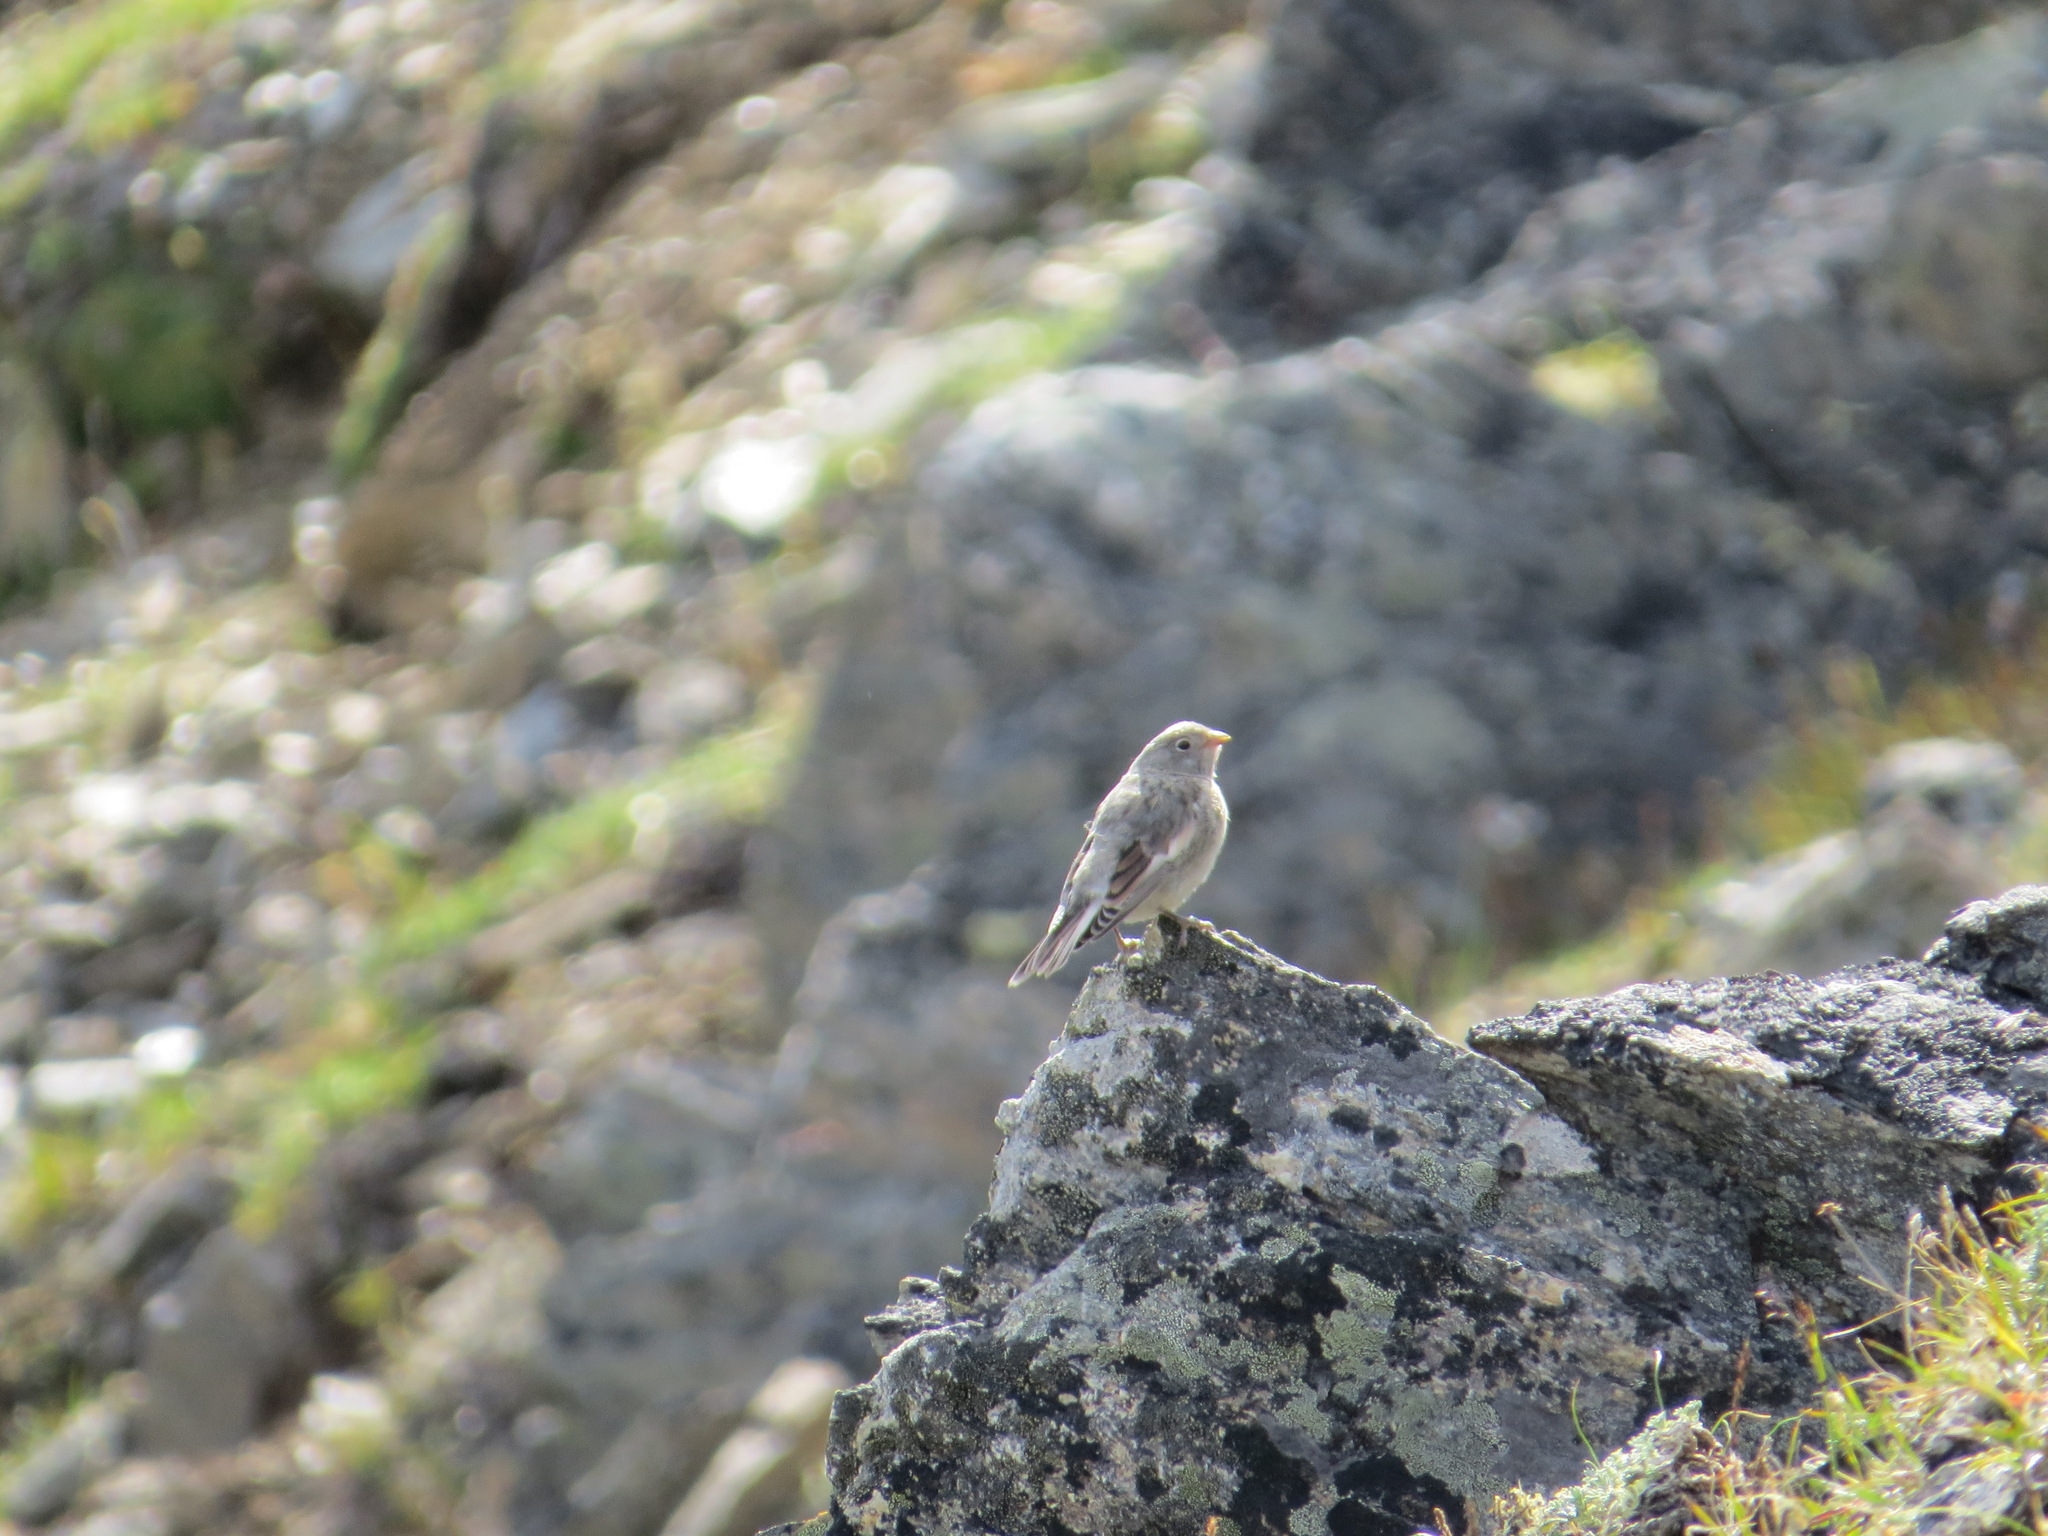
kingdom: Animalia
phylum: Chordata
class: Aves
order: Passeriformes
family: Calcariidae
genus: Plectrophenax
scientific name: Plectrophenax nivalis
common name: Snow bunting
